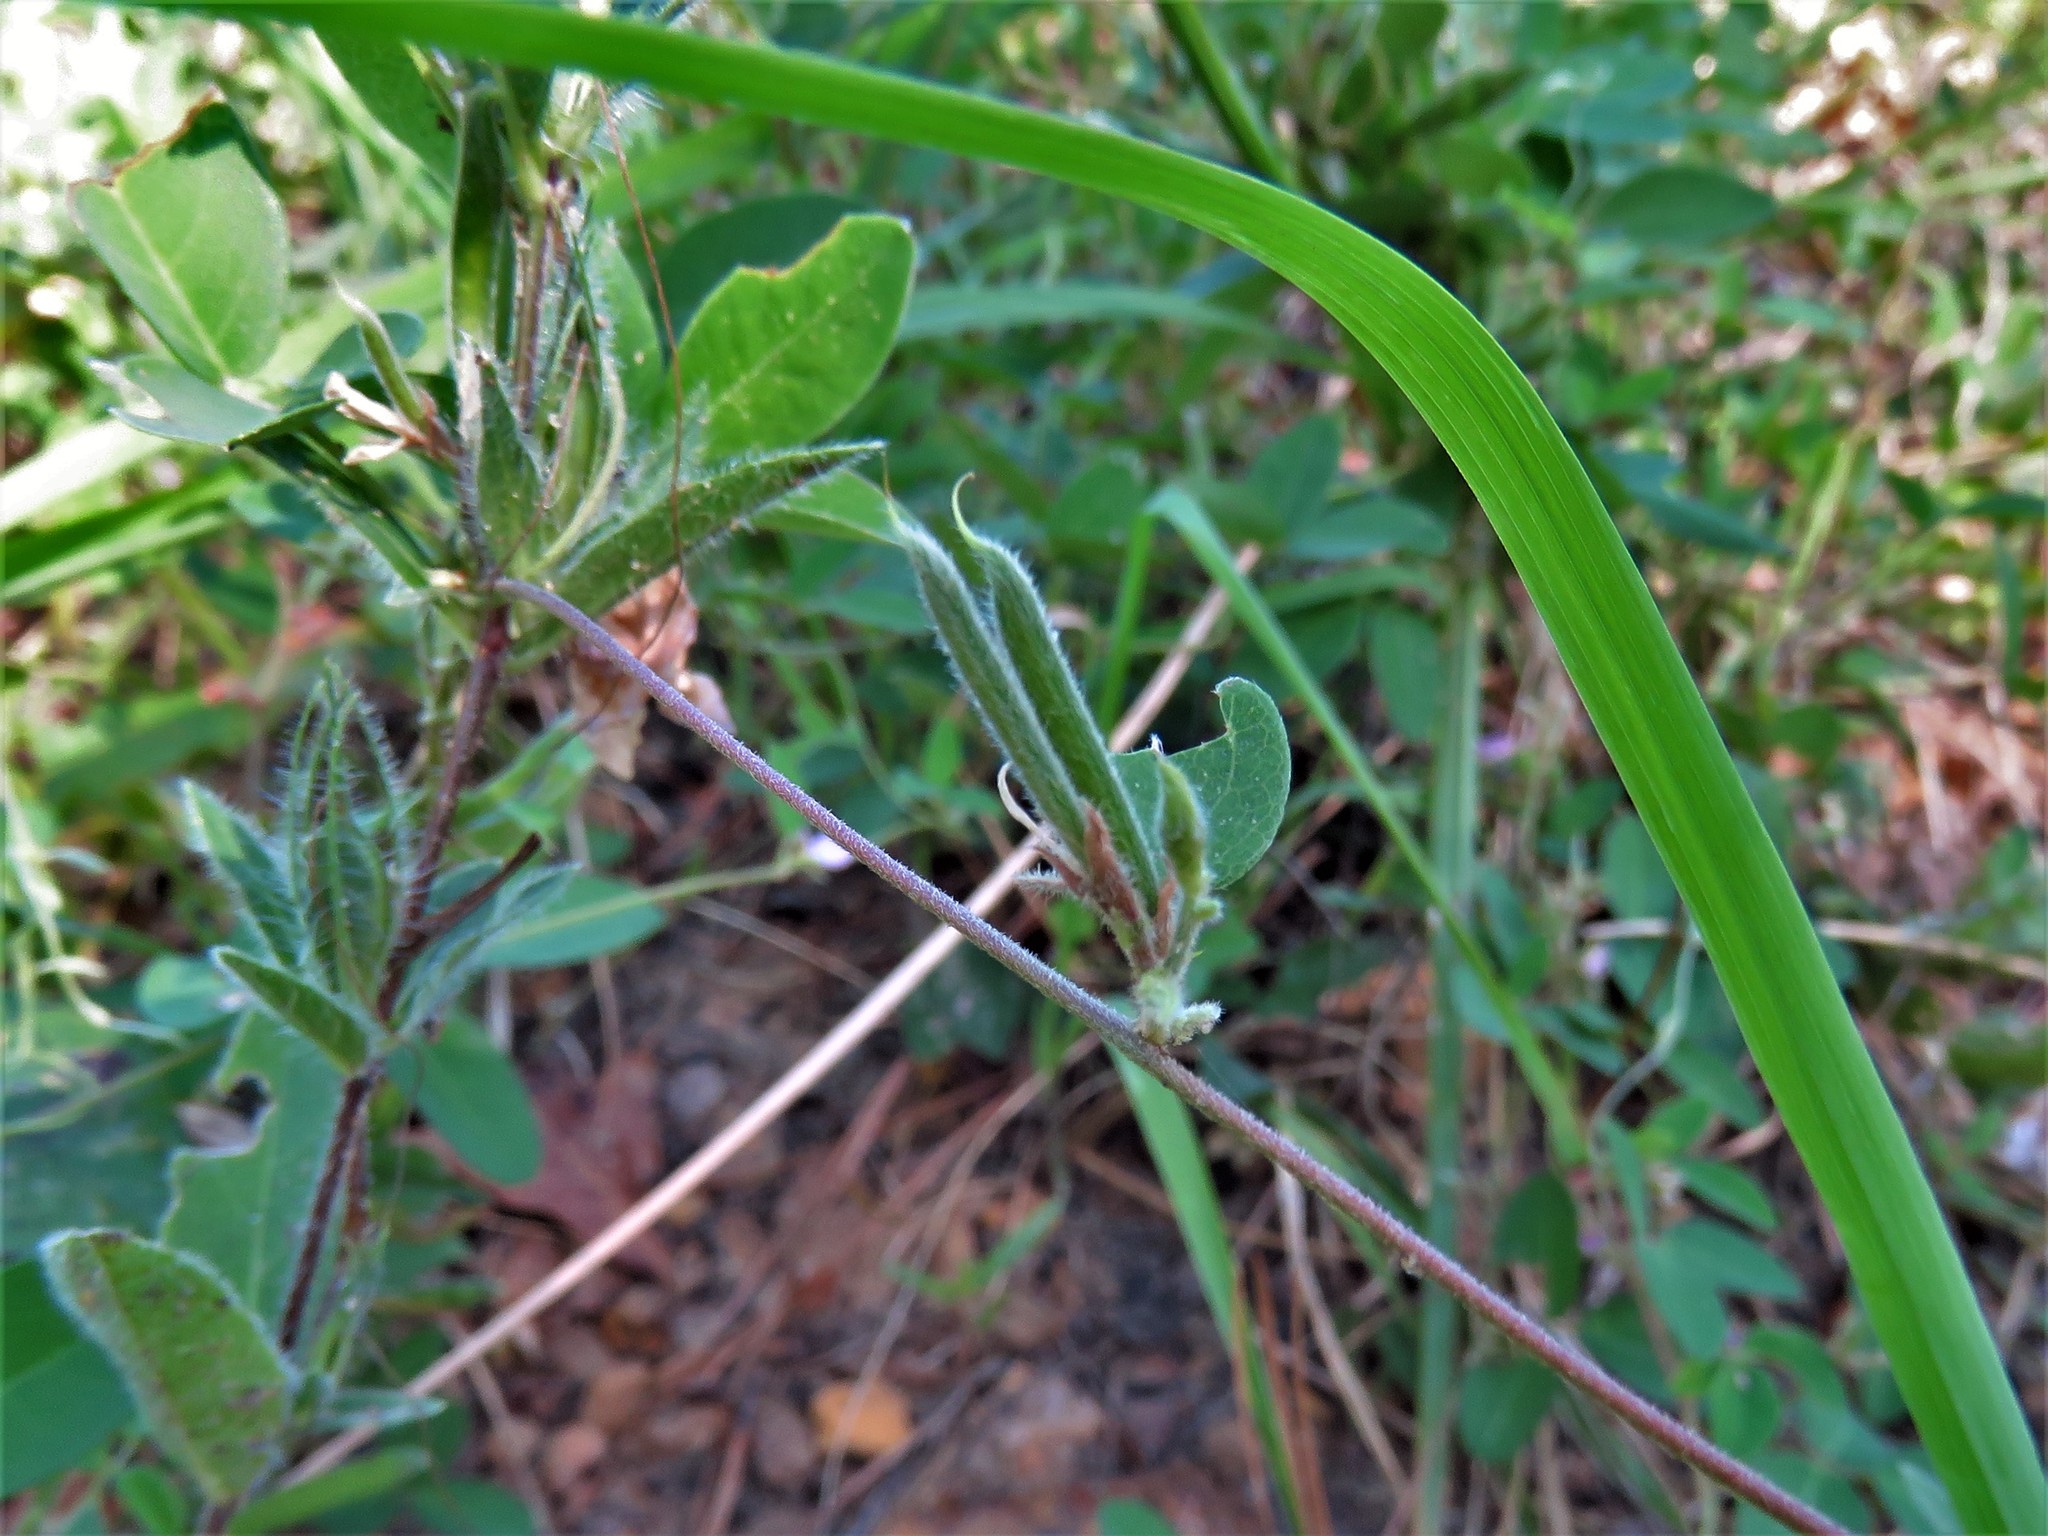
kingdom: Plantae
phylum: Tracheophyta
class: Magnoliopsida
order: Fabales
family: Fabaceae
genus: Galactia
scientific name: Galactia regularis
